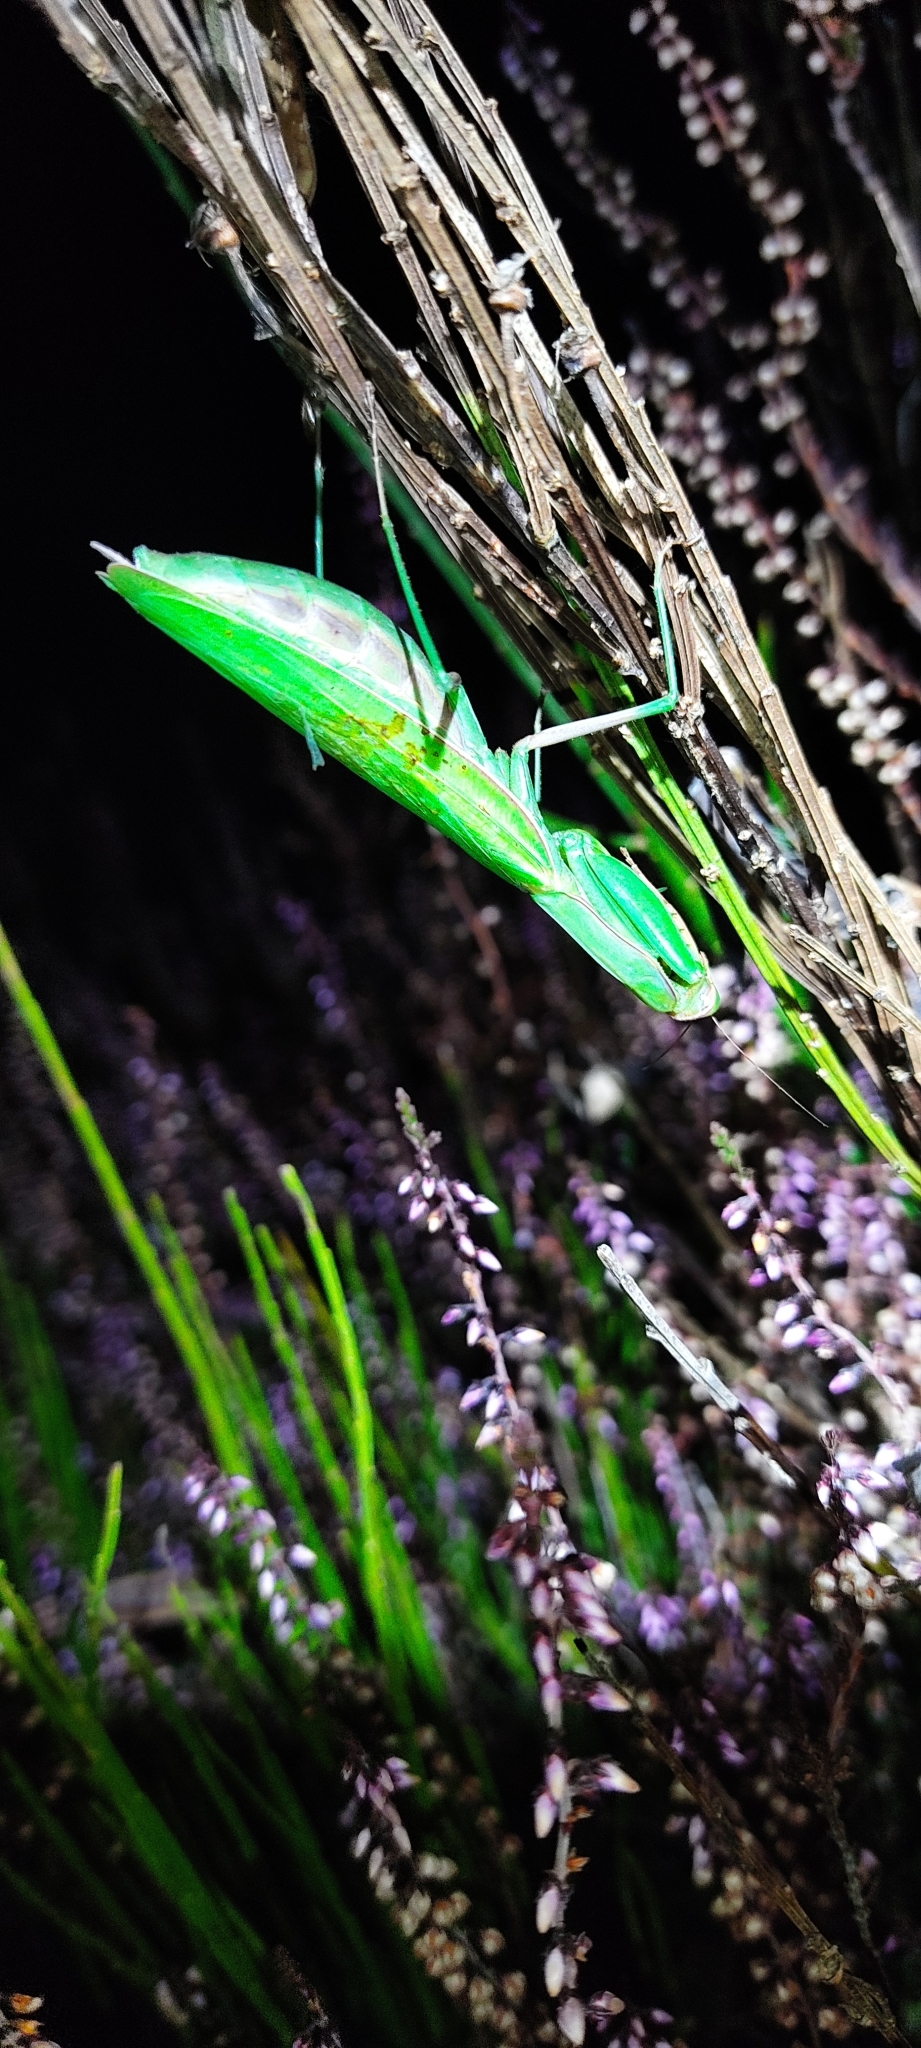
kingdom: Animalia
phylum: Arthropoda
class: Insecta
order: Mantodea
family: Mantidae
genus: Mantis
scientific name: Mantis religiosa
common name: Praying mantis
